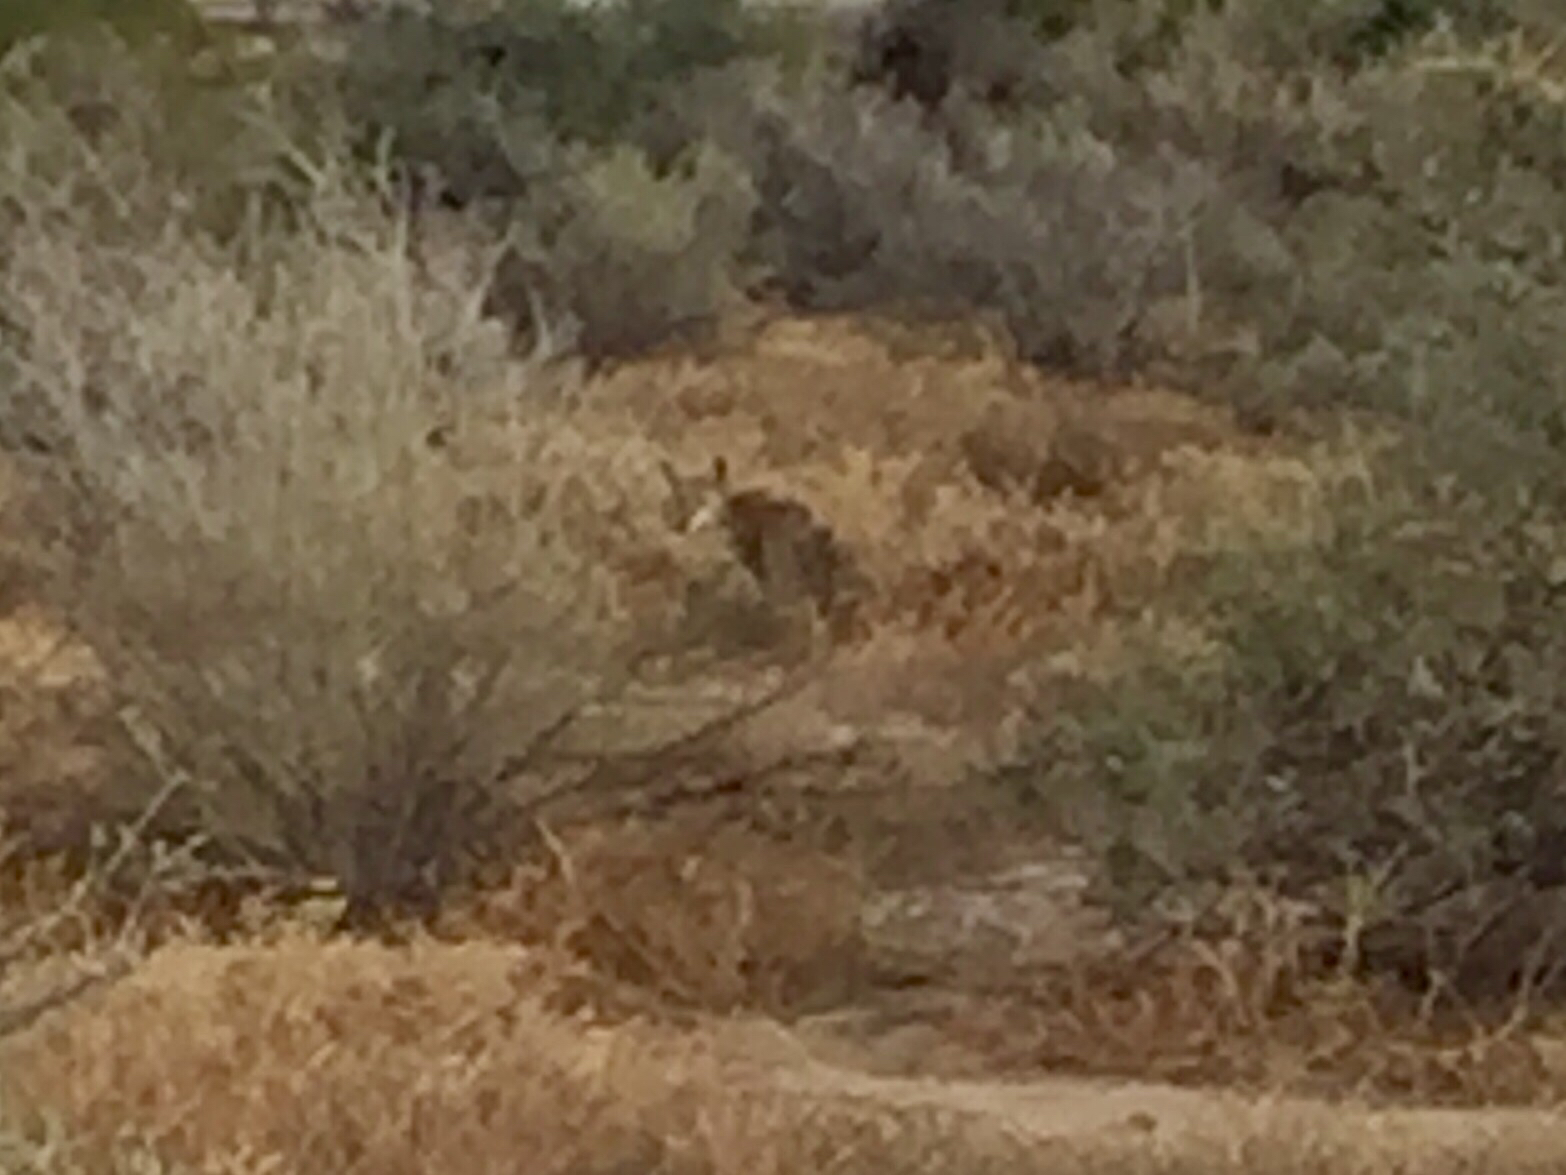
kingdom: Animalia
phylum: Chordata
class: Mammalia
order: Carnivora
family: Canidae
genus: Canis
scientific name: Canis latrans
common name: Coyote
